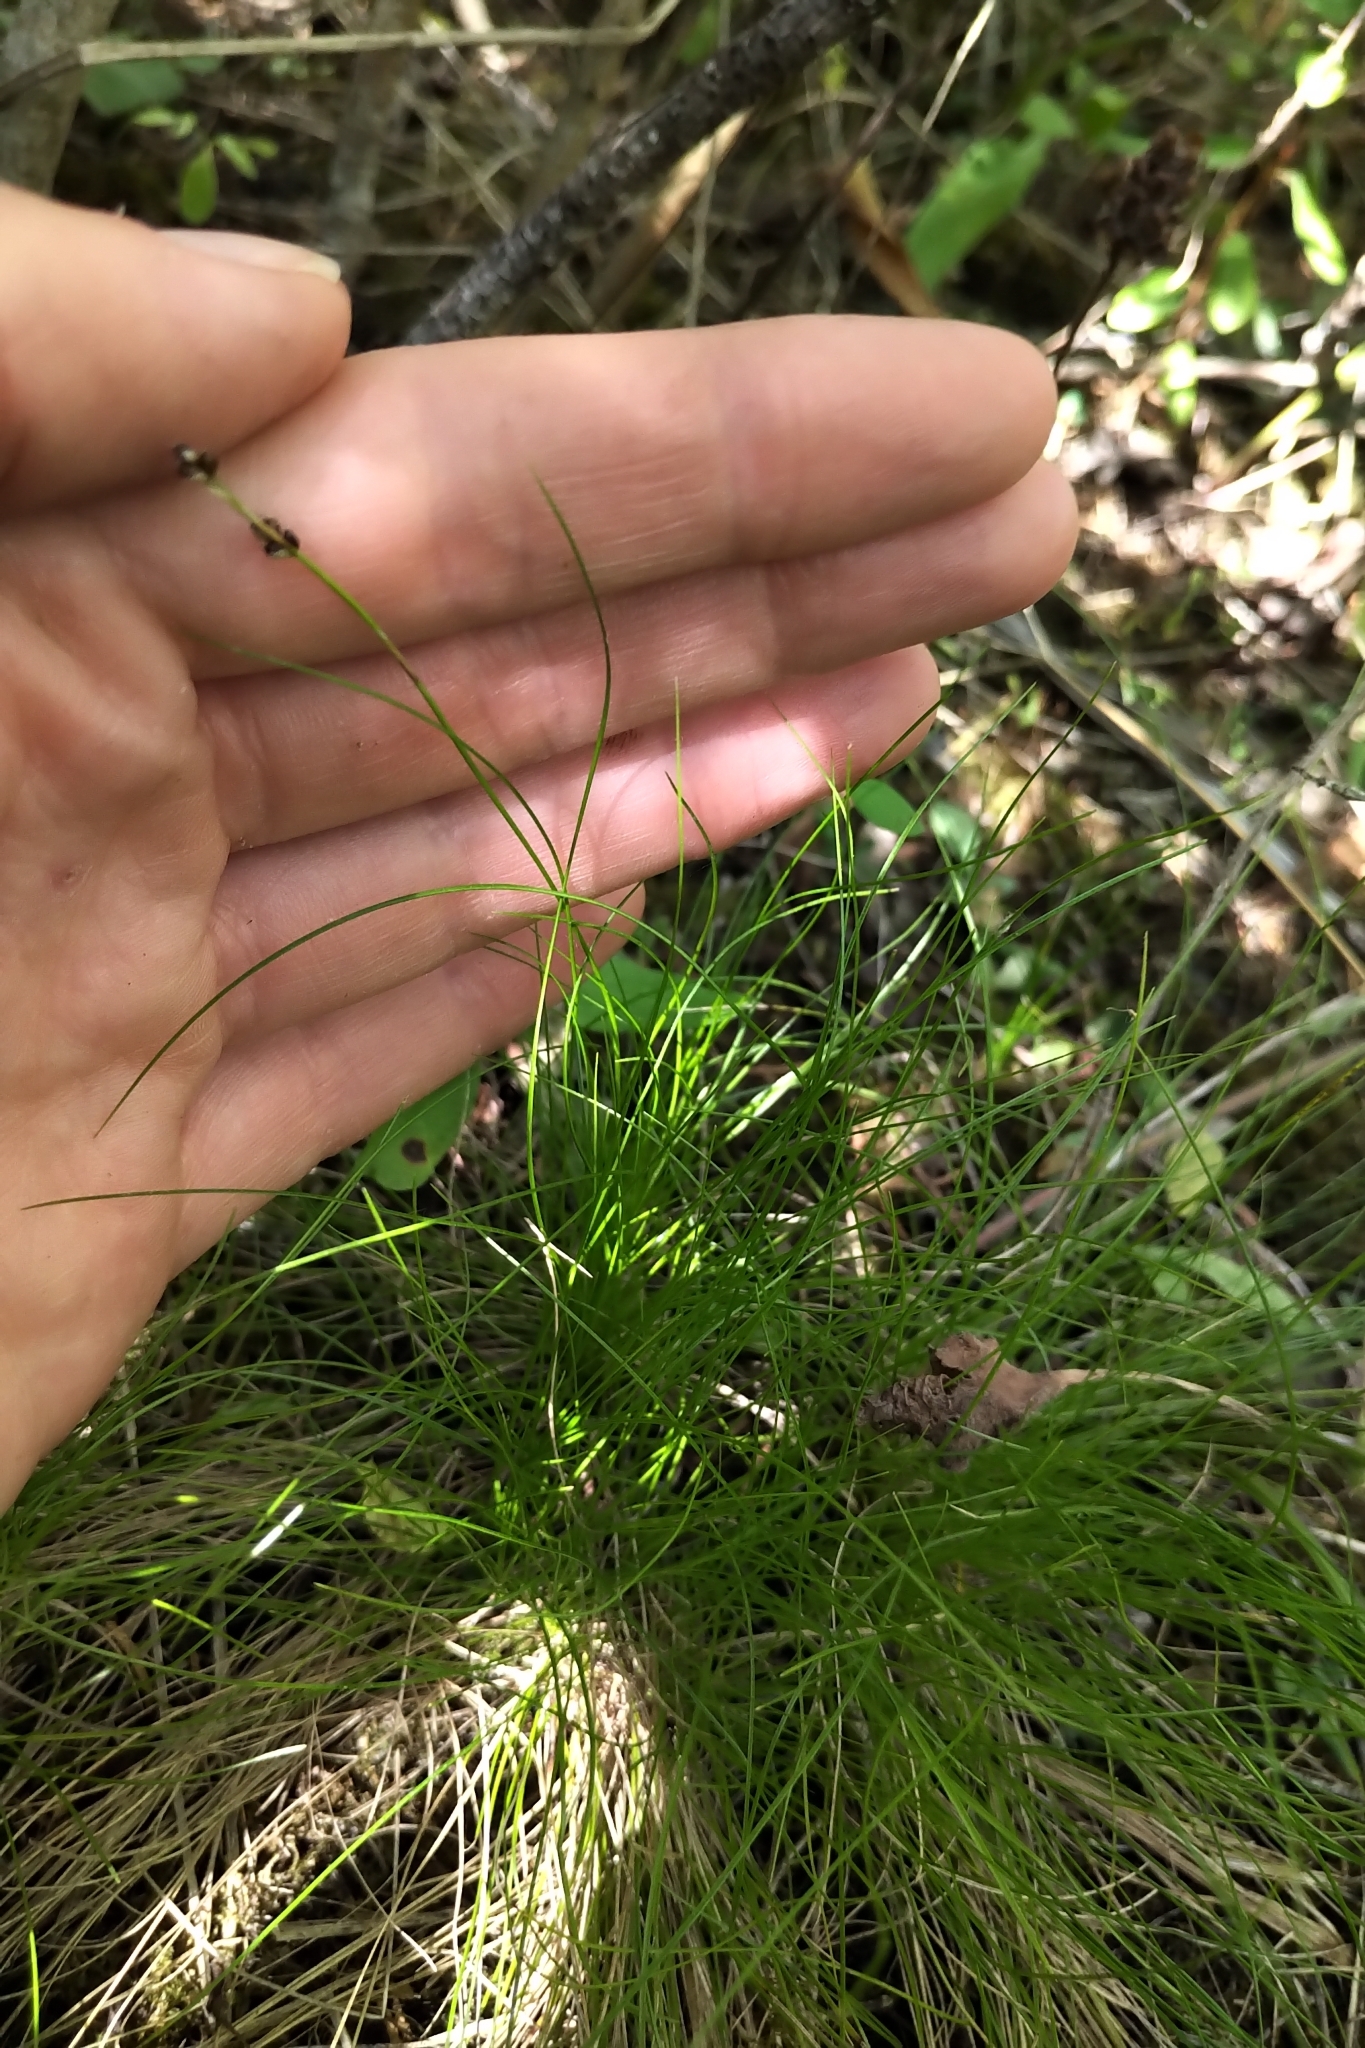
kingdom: Plantae
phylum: Tracheophyta
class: Liliopsida
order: Poales
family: Cyperaceae
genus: Carex
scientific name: Carex eburnea
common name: Bristle-leaved sedge
